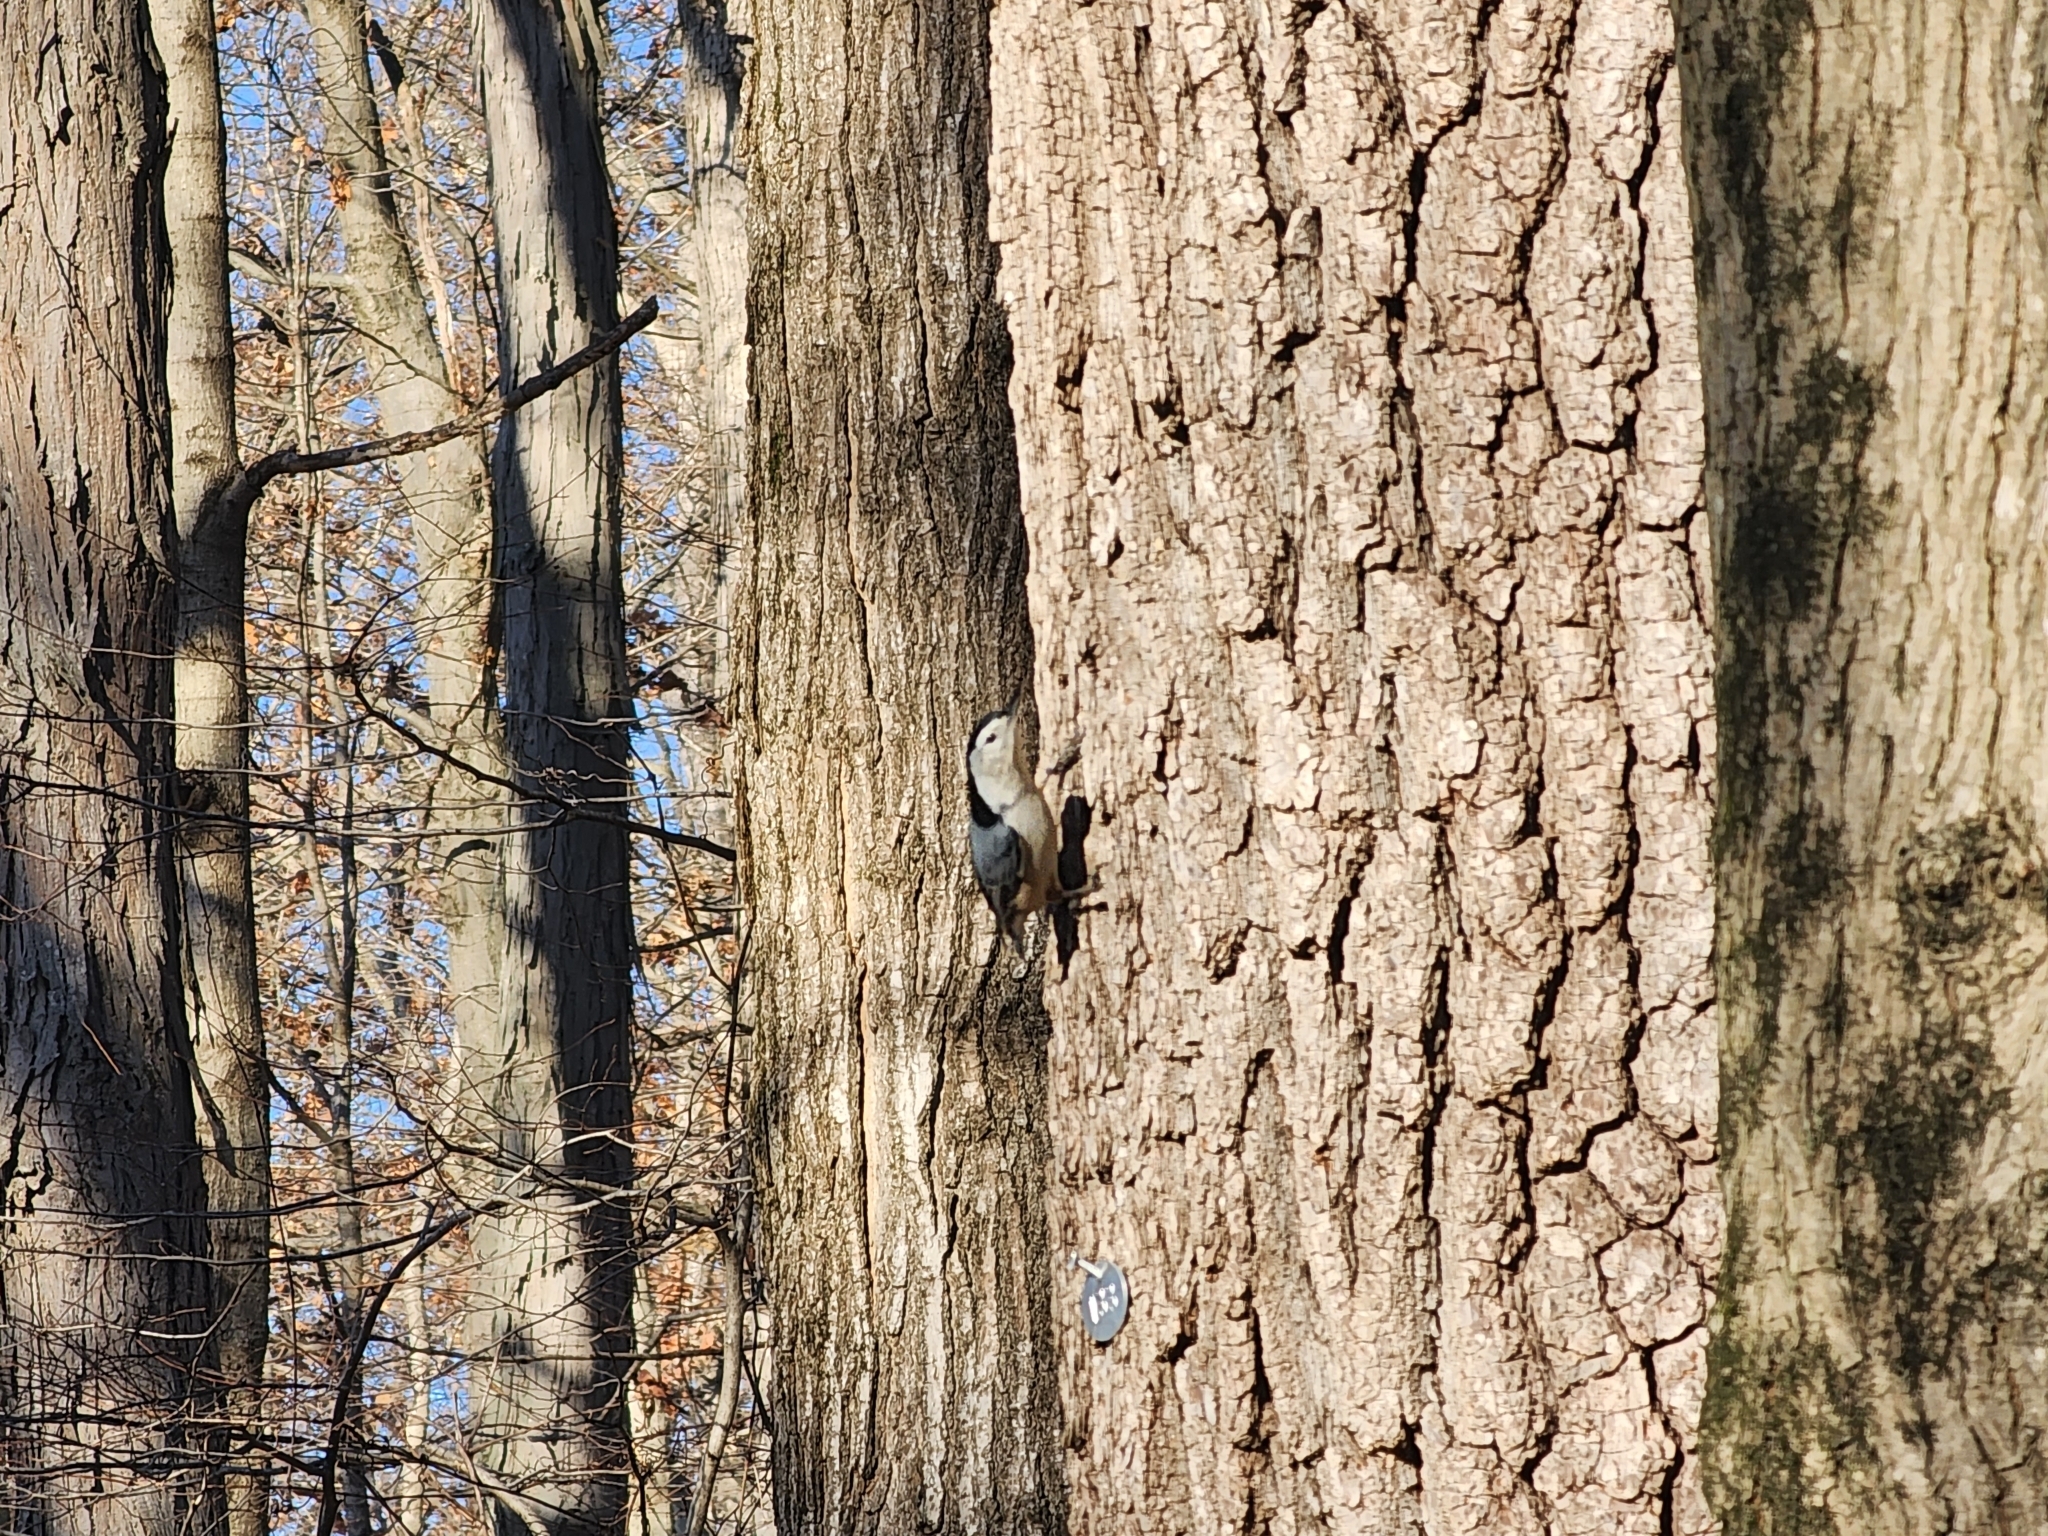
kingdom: Animalia
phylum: Chordata
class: Aves
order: Passeriformes
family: Sittidae
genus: Sitta
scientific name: Sitta carolinensis
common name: White-breasted nuthatch
